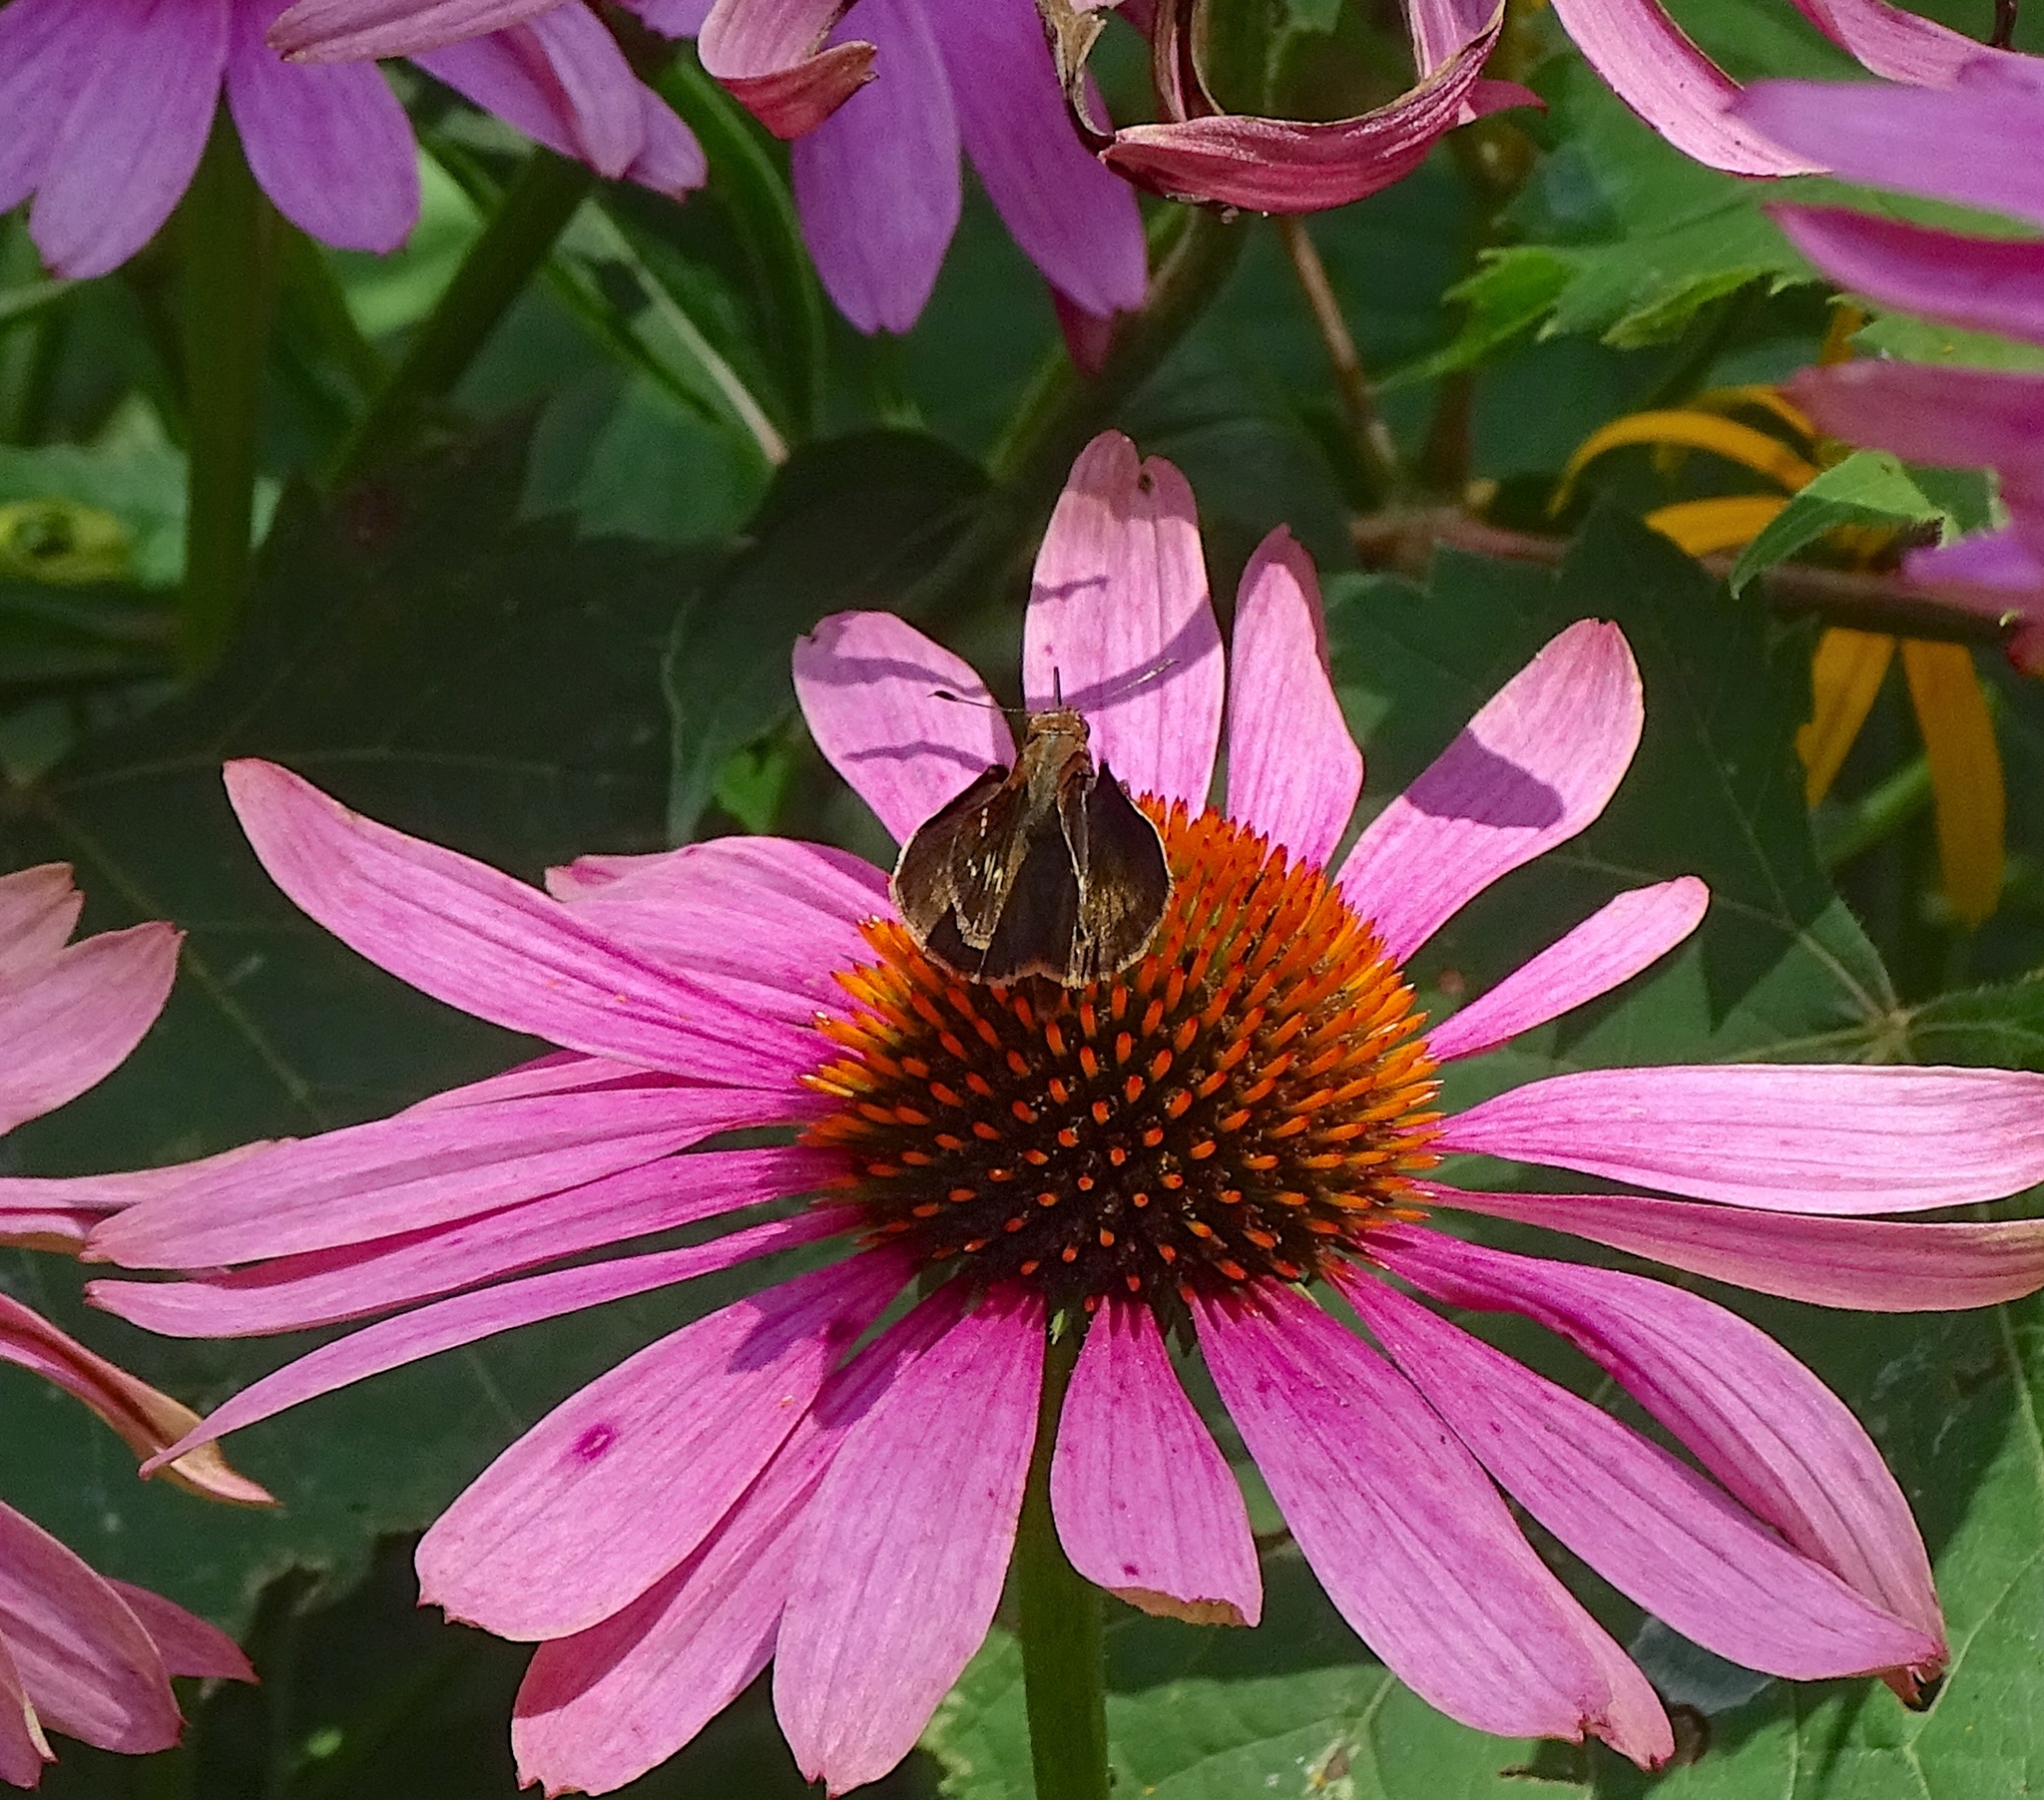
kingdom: Animalia
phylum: Arthropoda
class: Insecta
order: Lepidoptera
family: Hesperiidae
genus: Lon
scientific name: Lon zabulon
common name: Zabulon skipper
